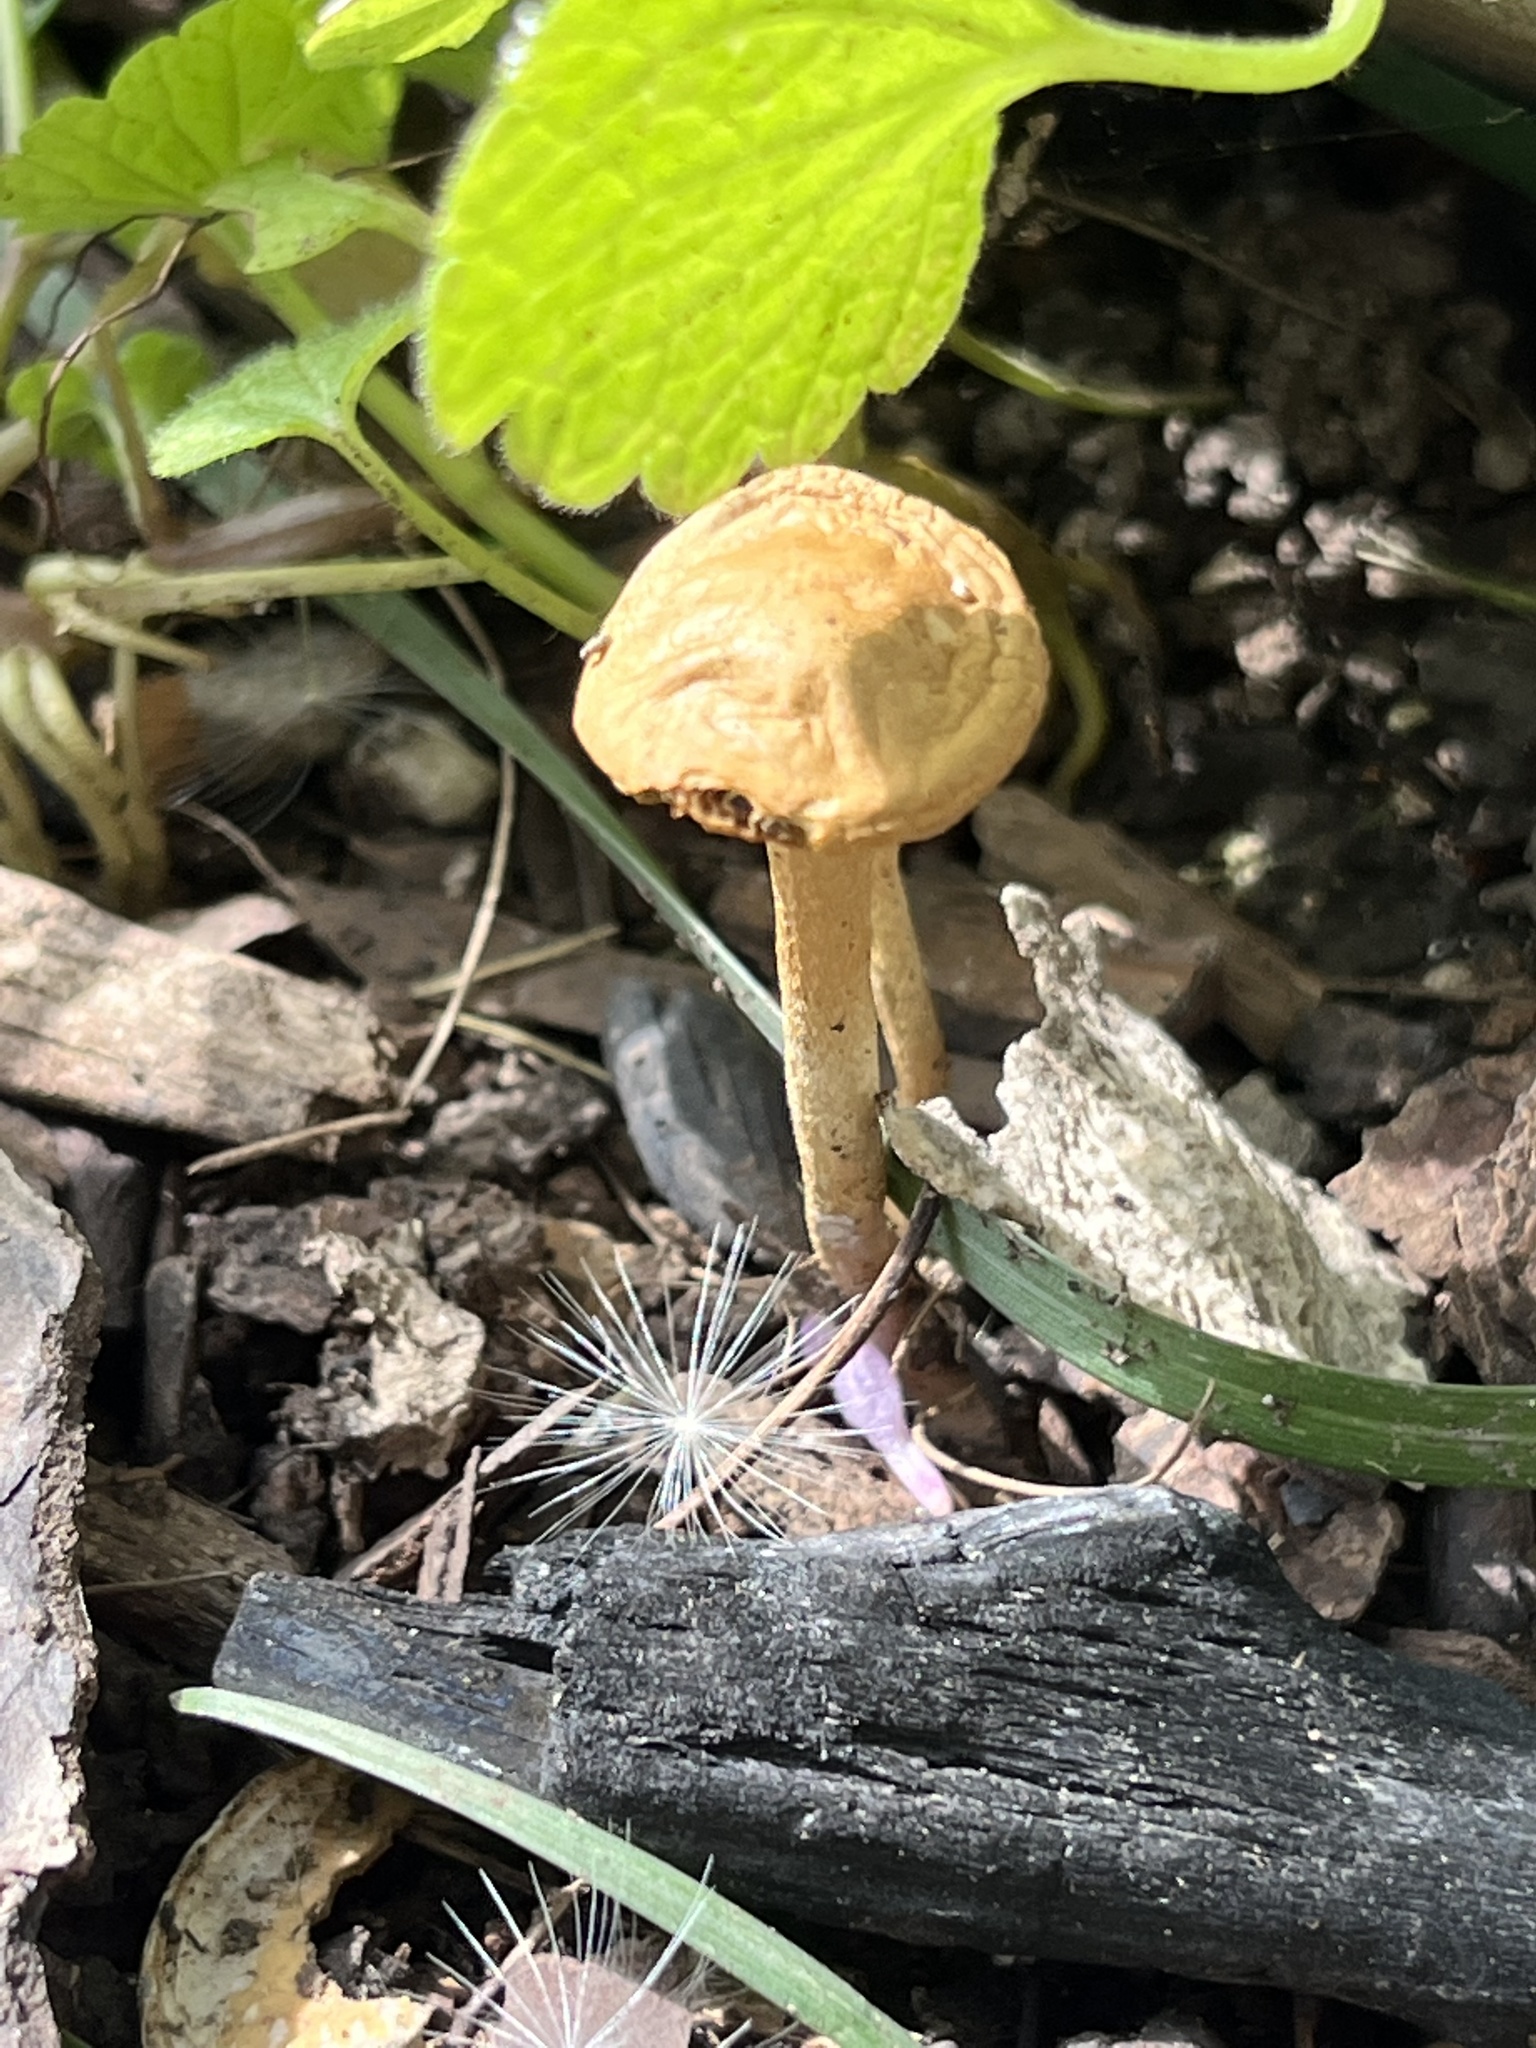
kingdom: Fungi
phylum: Basidiomycota
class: Agaricomycetes
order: Agaricales
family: Strophariaceae
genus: Agrocybe
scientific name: Agrocybe pediades
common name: Common fieldcap
